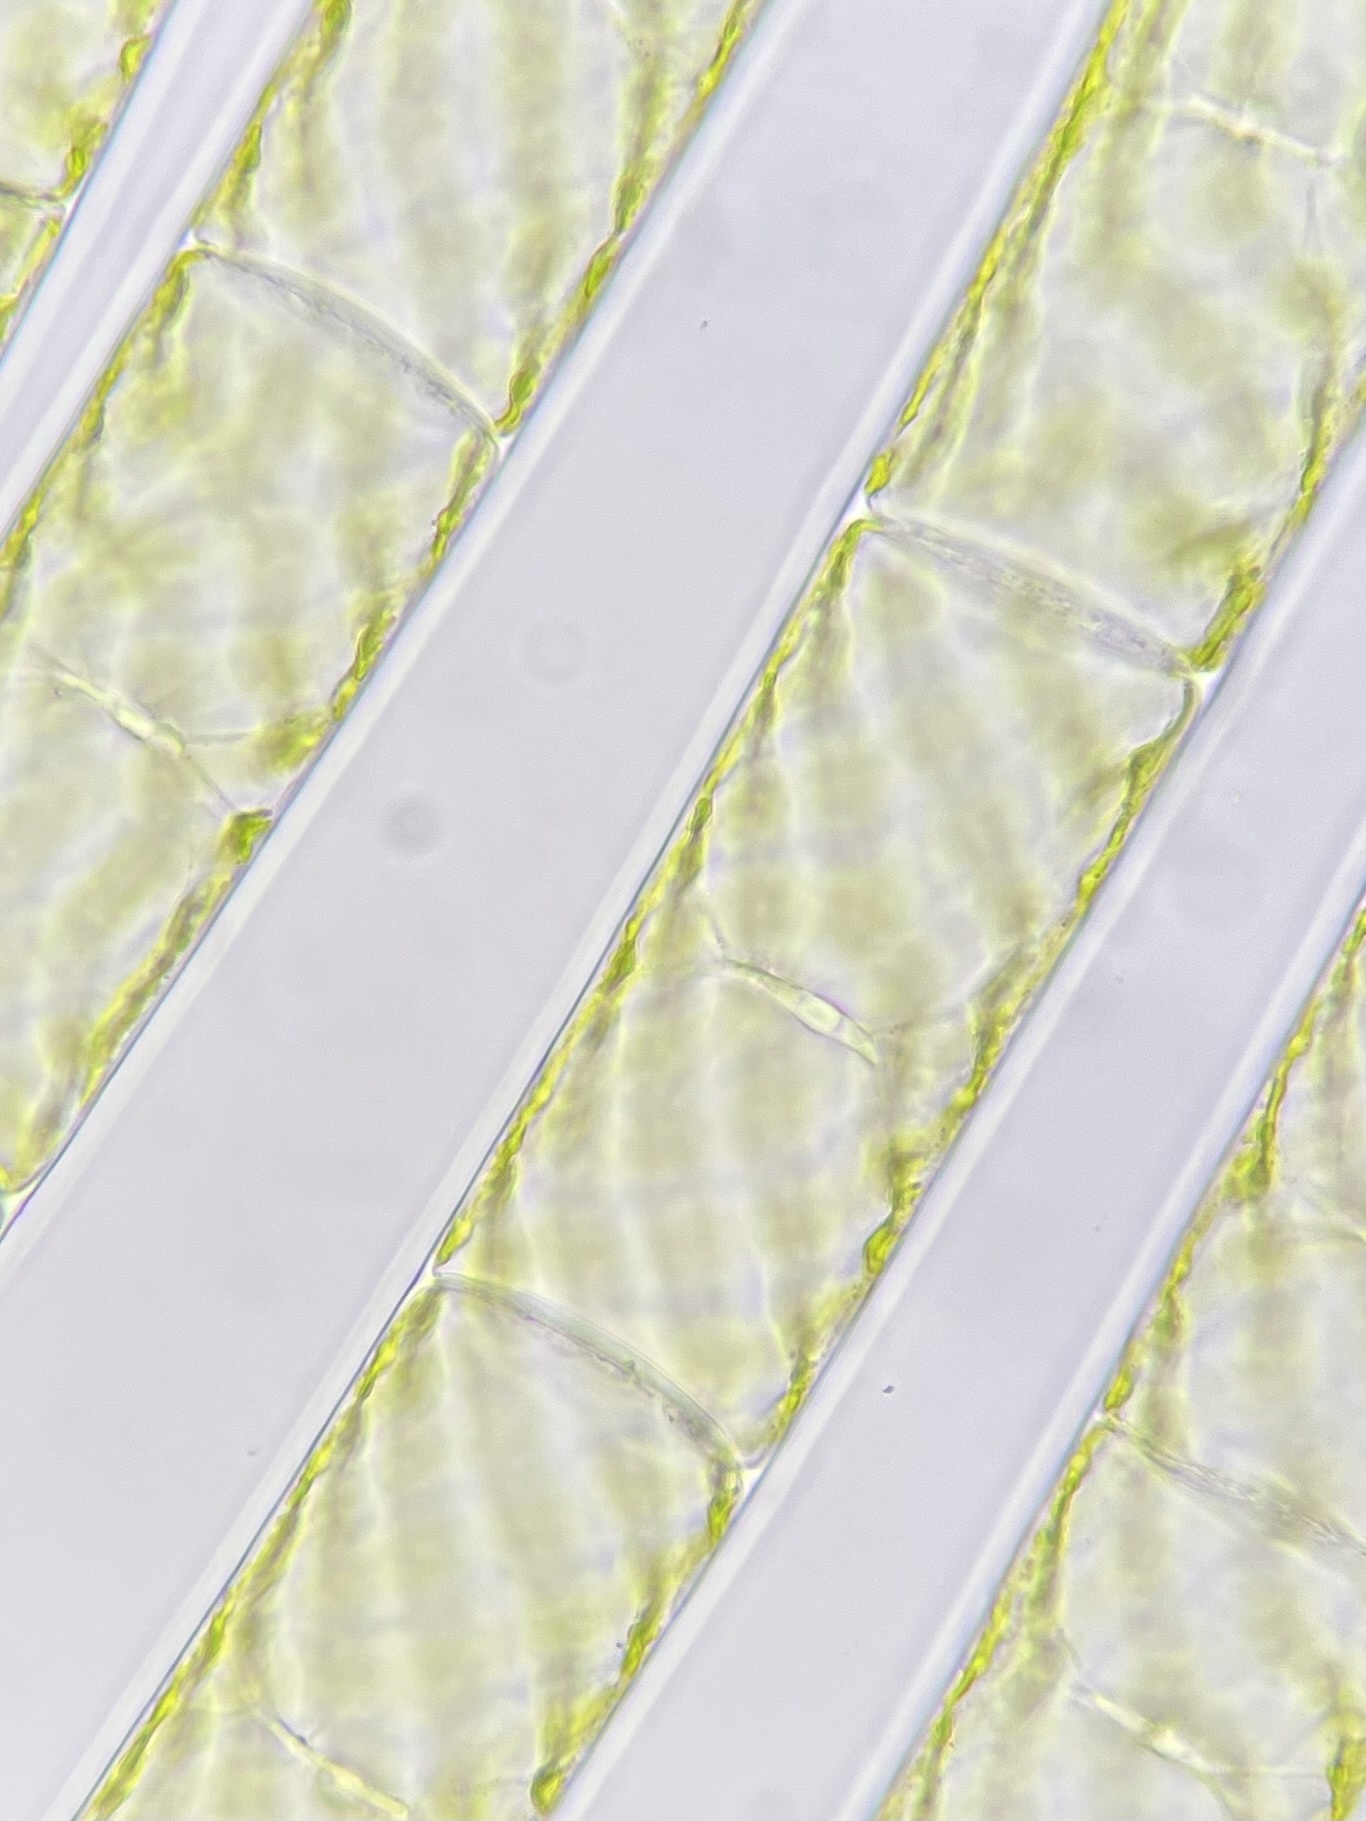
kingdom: Plantae
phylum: Charophyta
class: Zygnematophyceae
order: Zygnematales
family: Zygnemataceae
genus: Spirogyra
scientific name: Spirogyra
